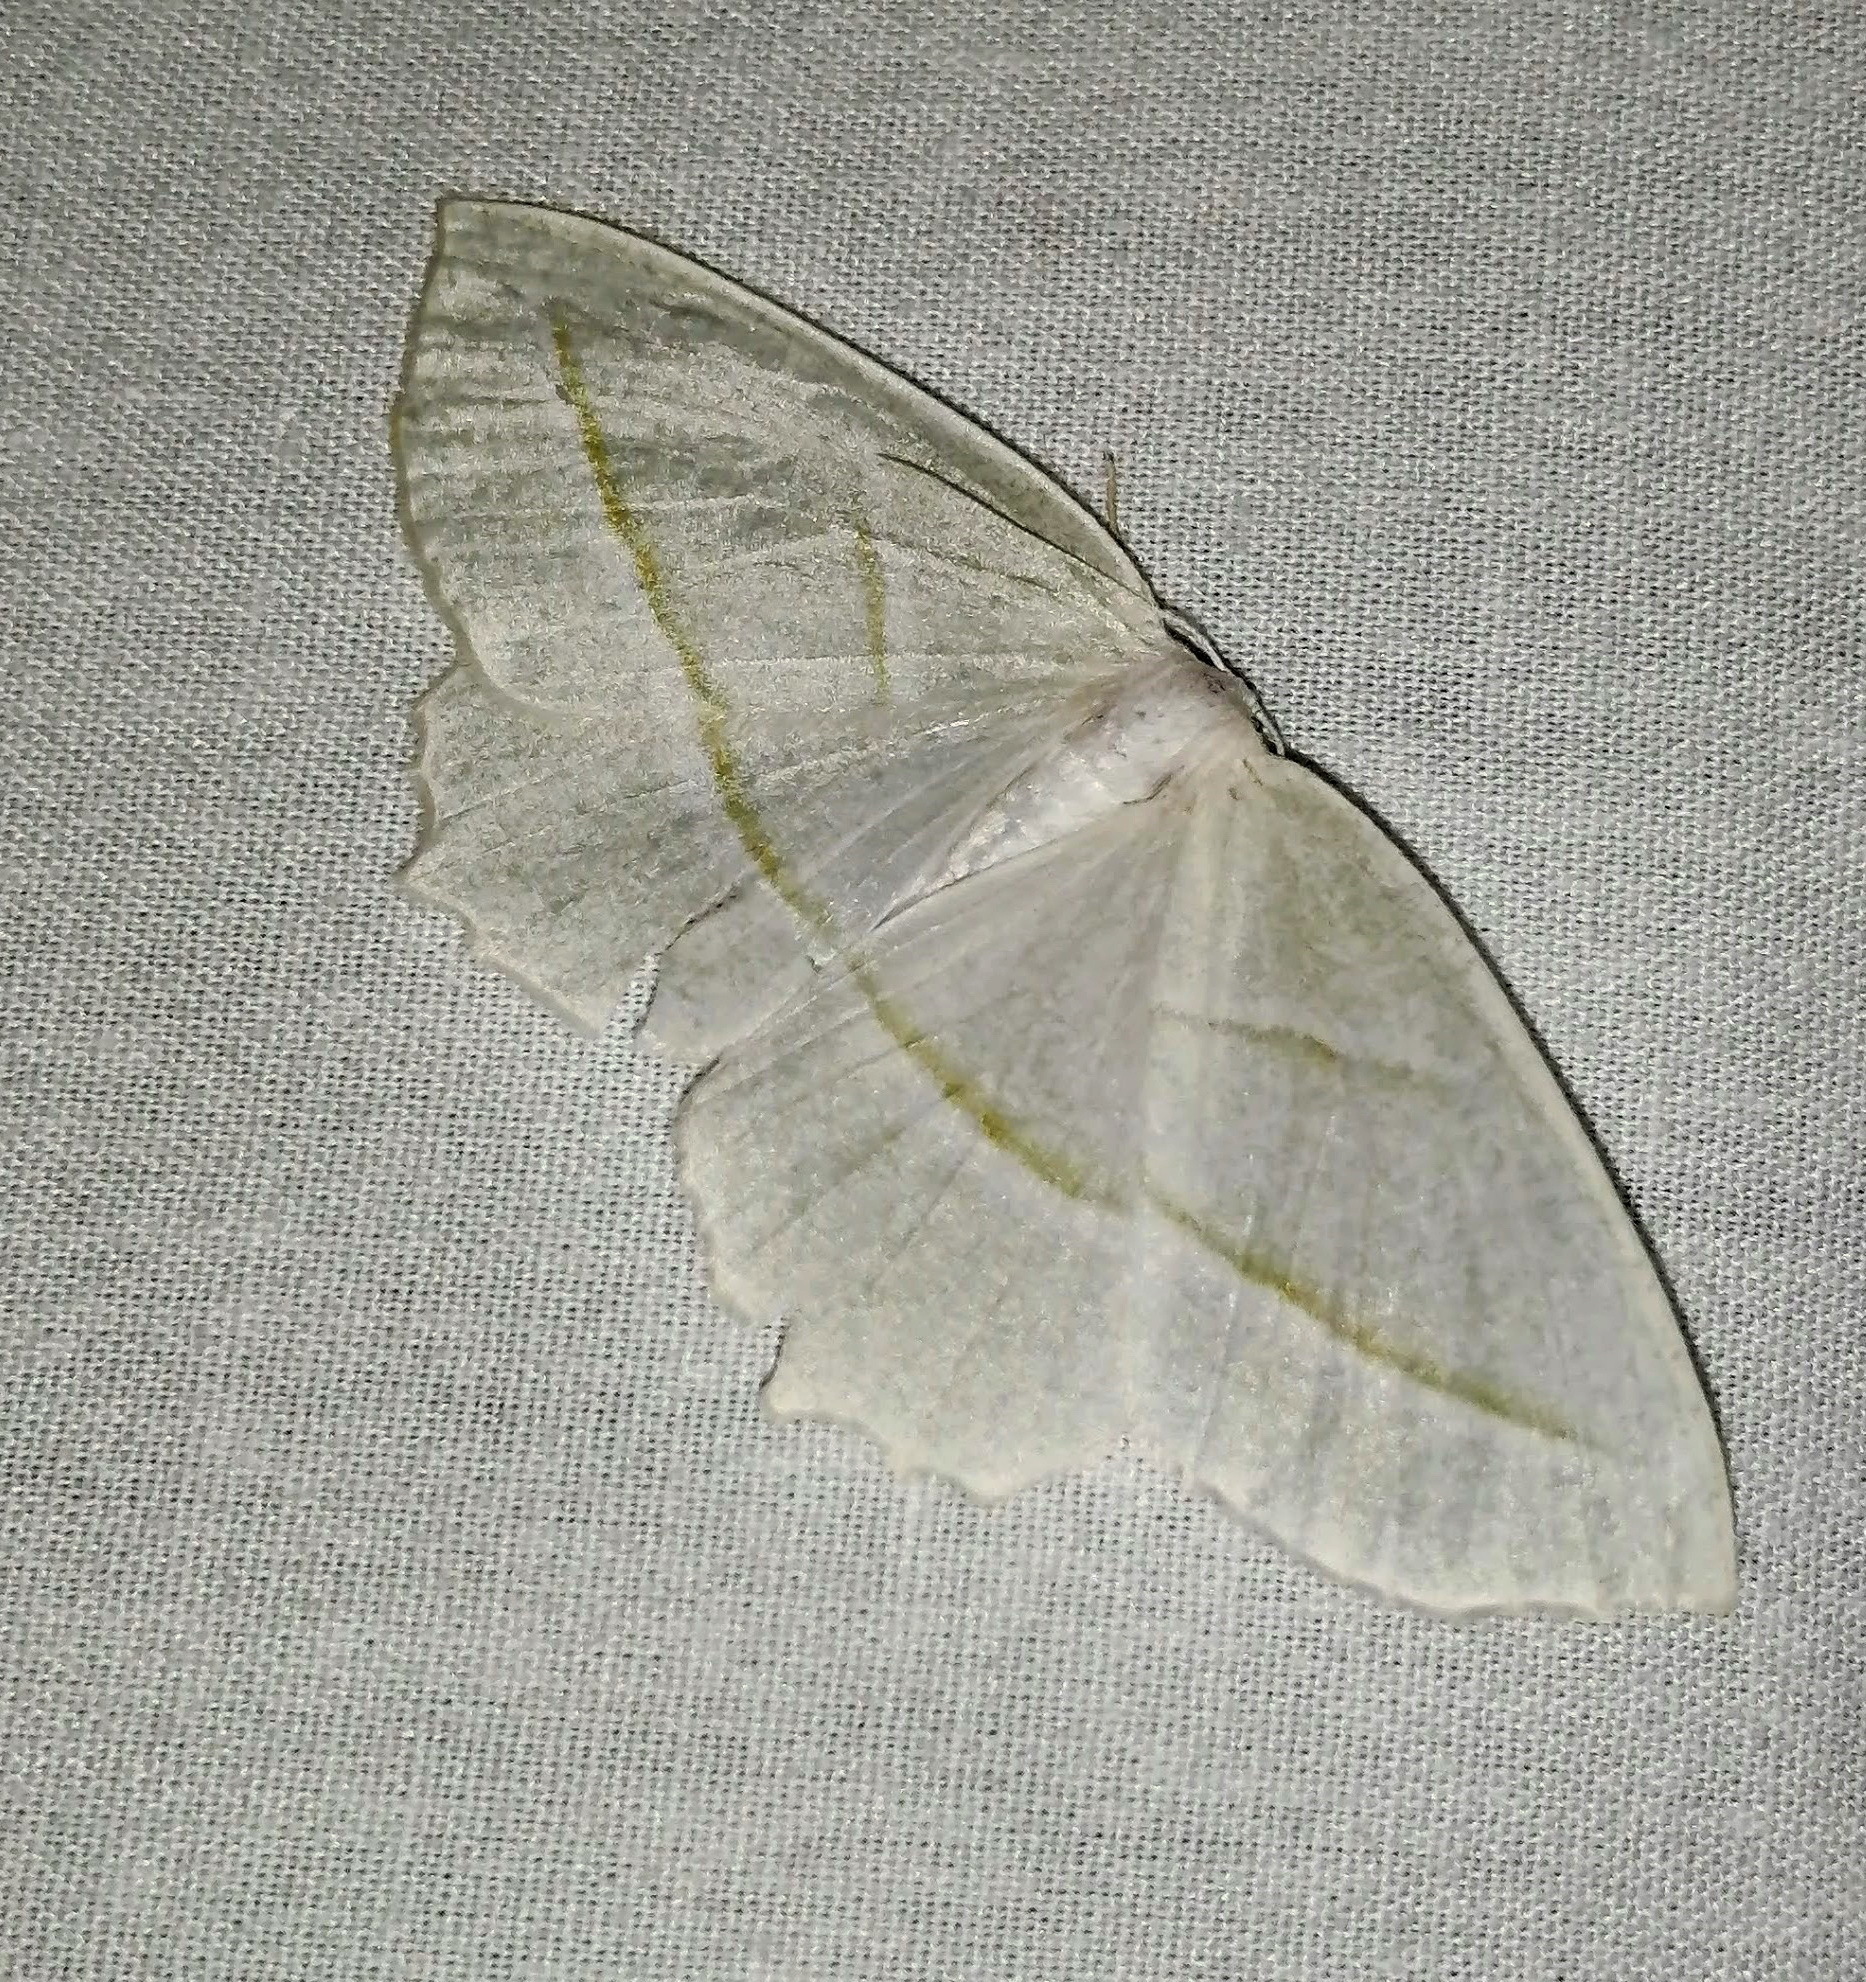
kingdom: Animalia
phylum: Arthropoda
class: Insecta
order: Lepidoptera
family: Geometridae
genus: Campaea
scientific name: Campaea perlata
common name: Fringed looper
